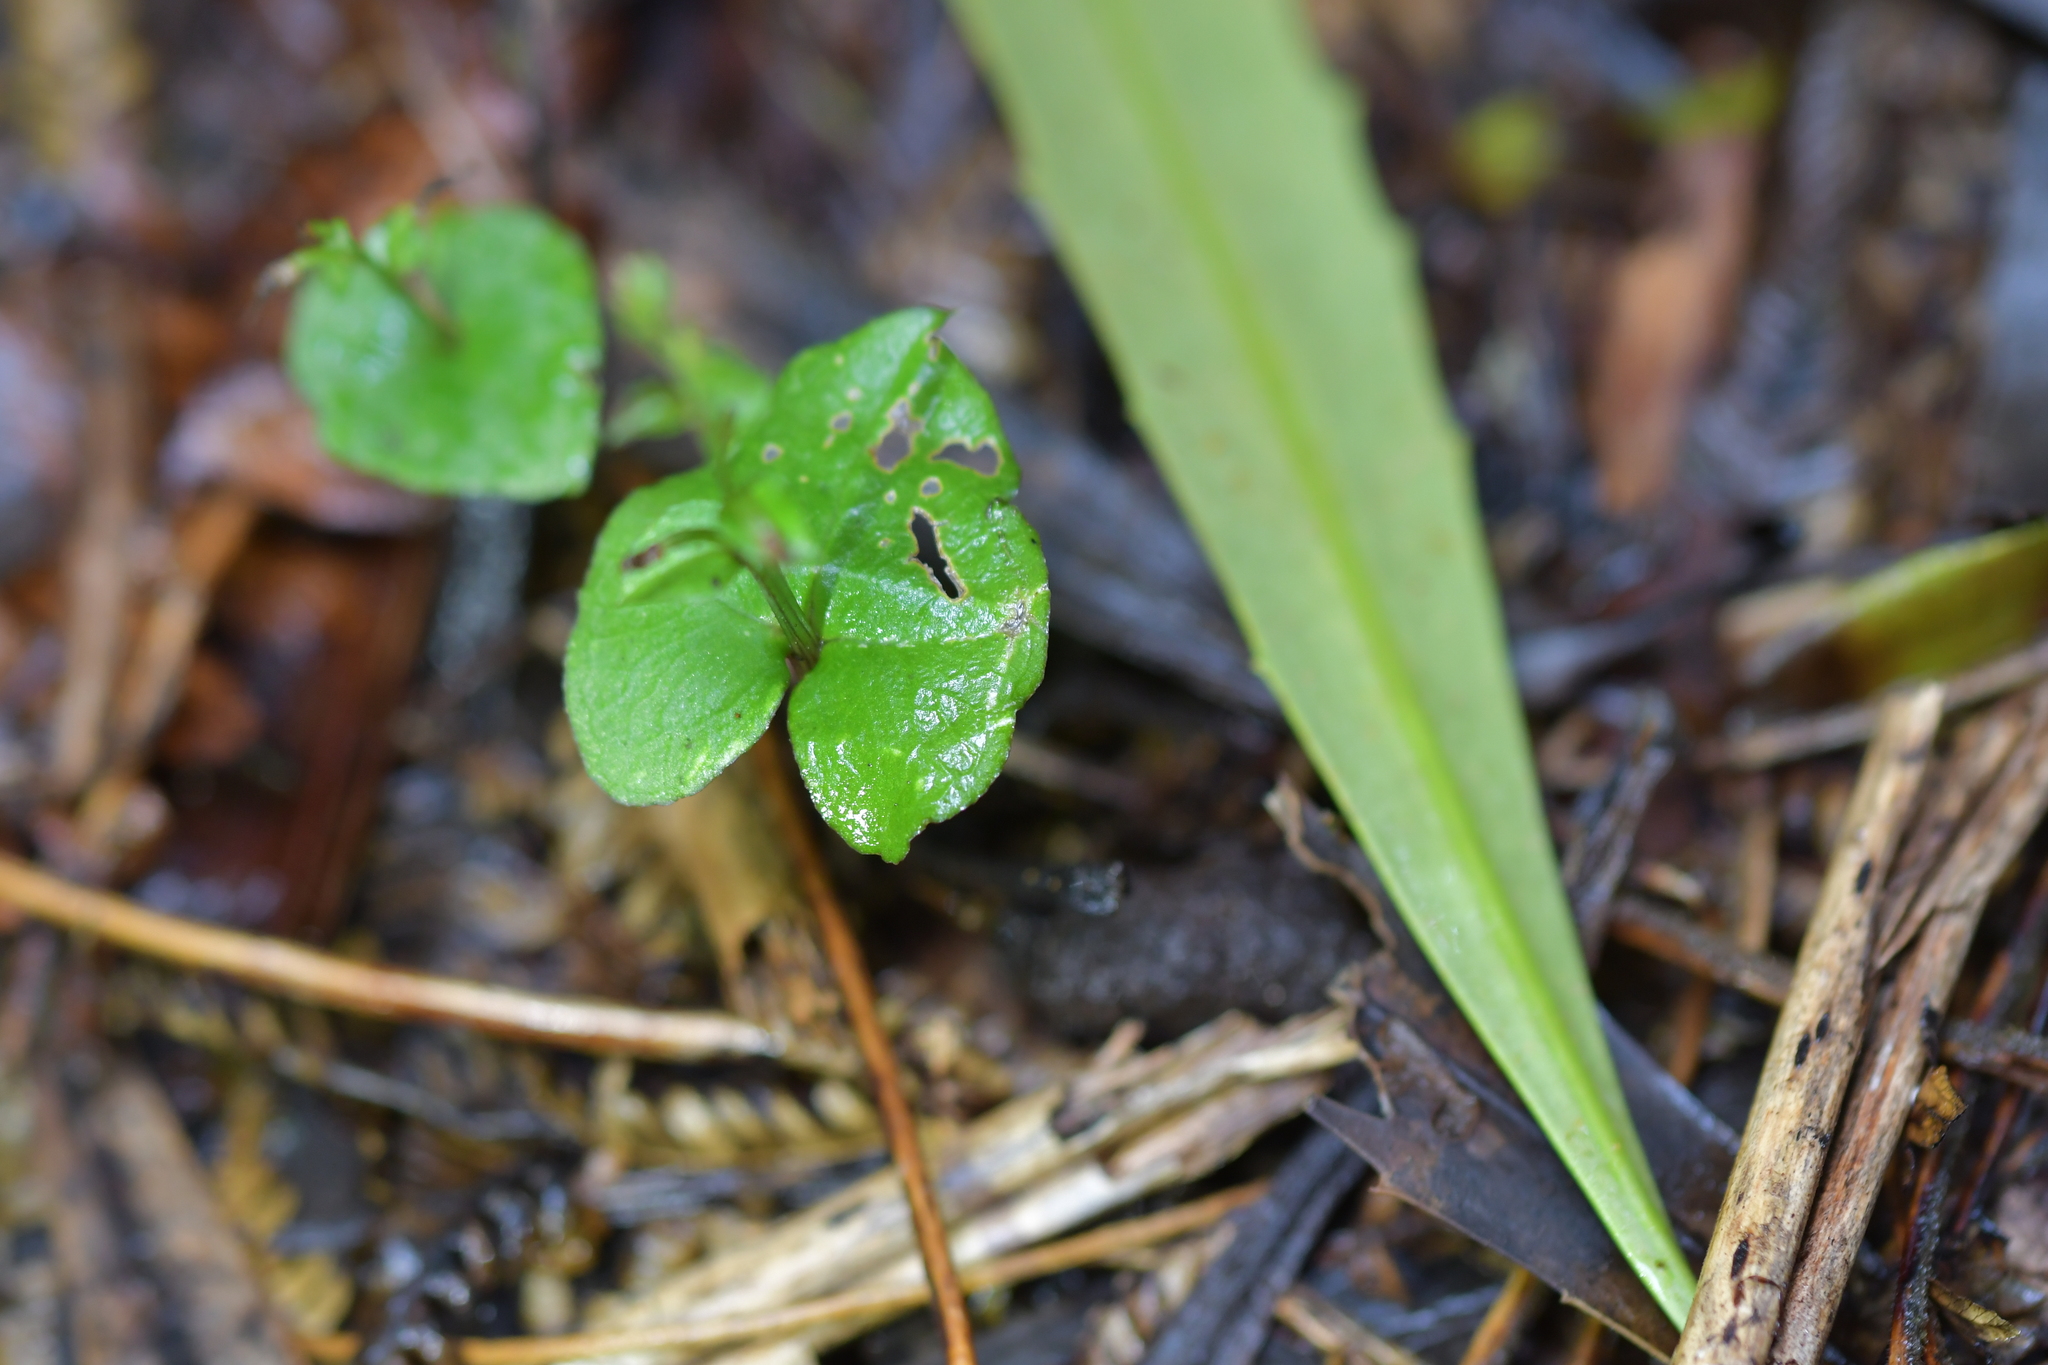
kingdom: Plantae
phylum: Tracheophyta
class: Liliopsida
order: Asparagales
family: Orchidaceae
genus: Acianthus
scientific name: Acianthus sinclairii
